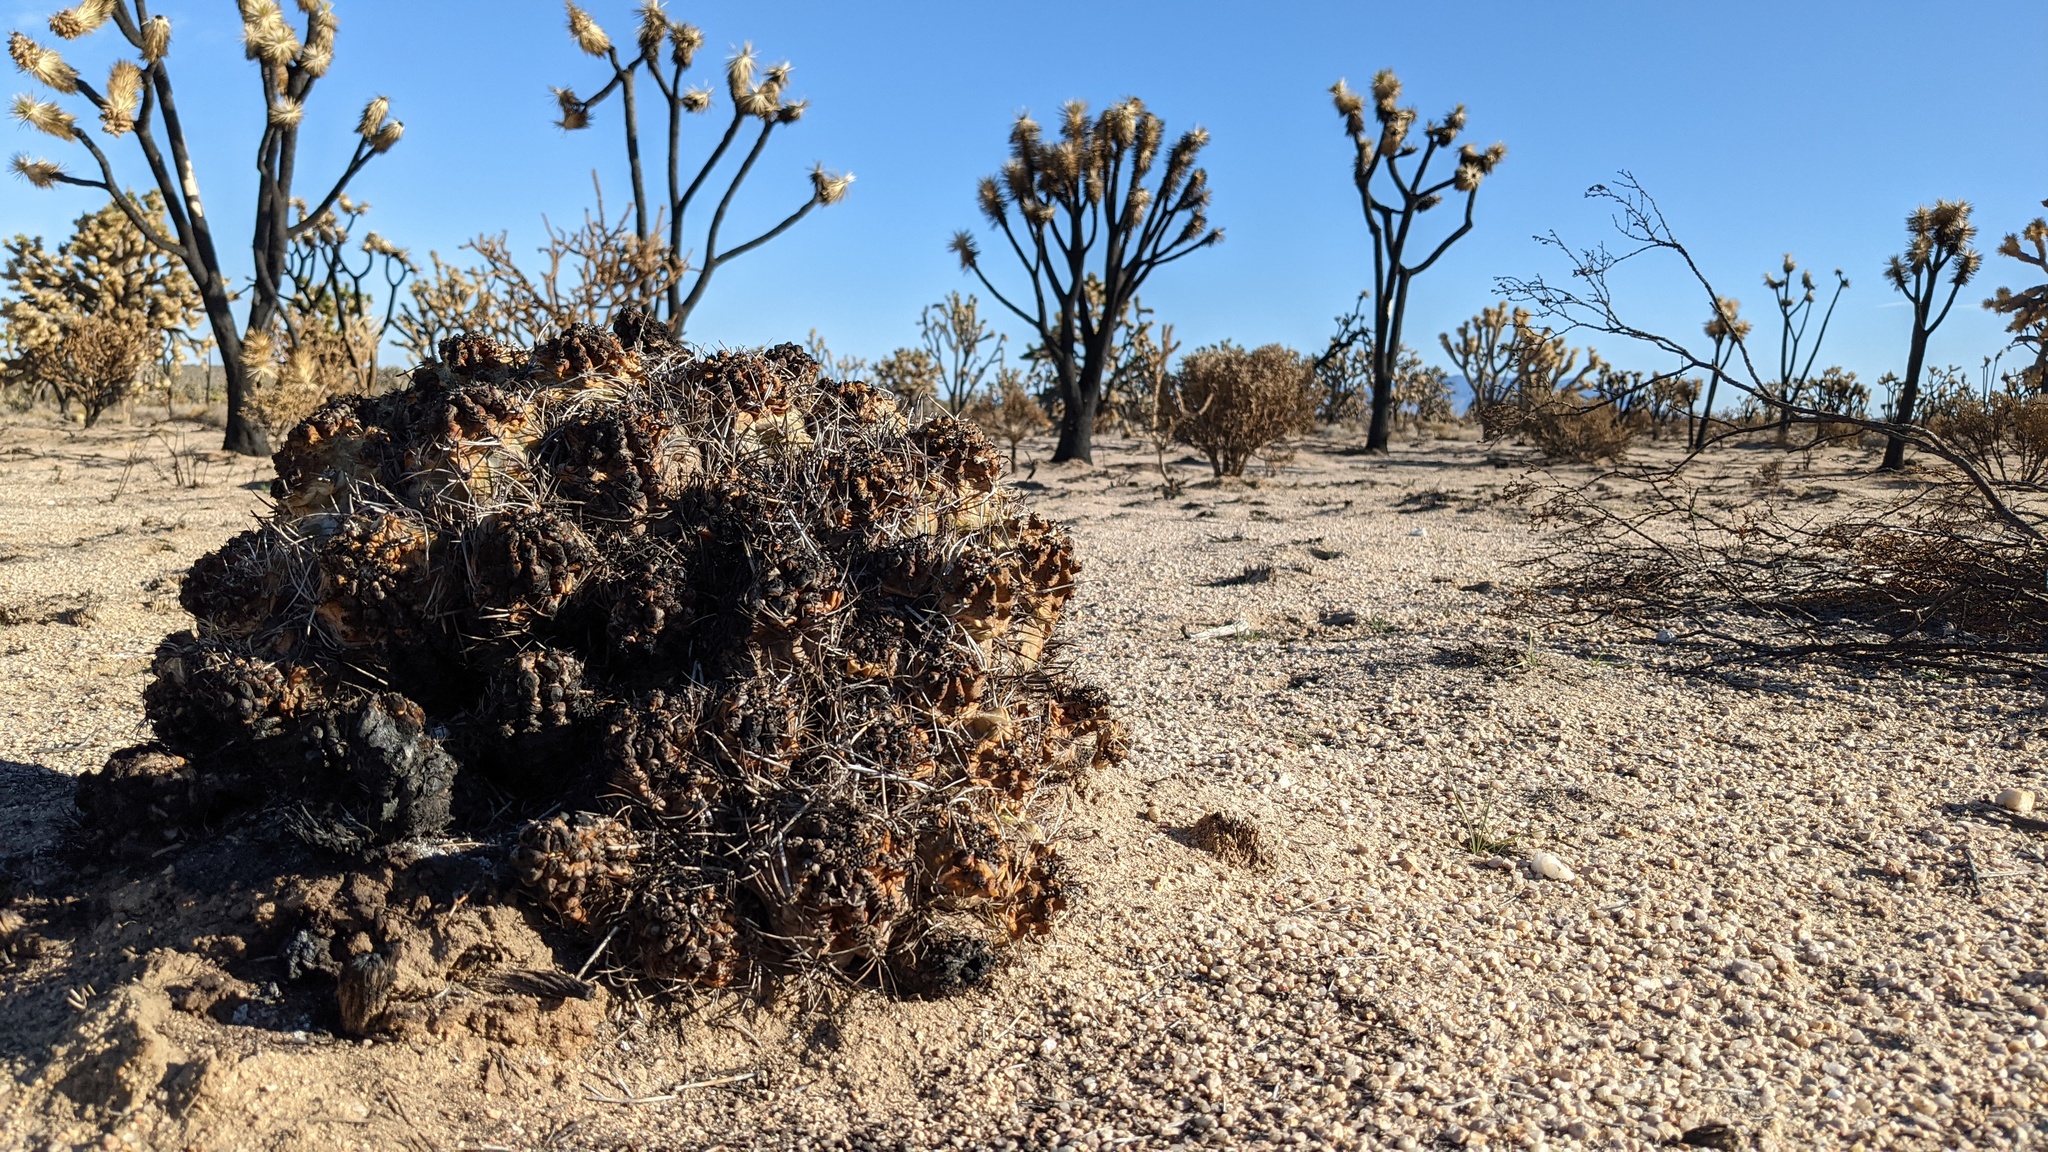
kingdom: Plantae
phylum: Tracheophyta
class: Magnoliopsida
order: Caryophyllales
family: Cactaceae
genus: Echinocereus
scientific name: Echinocereus triglochidiatus
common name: Claretcup hedgehog
